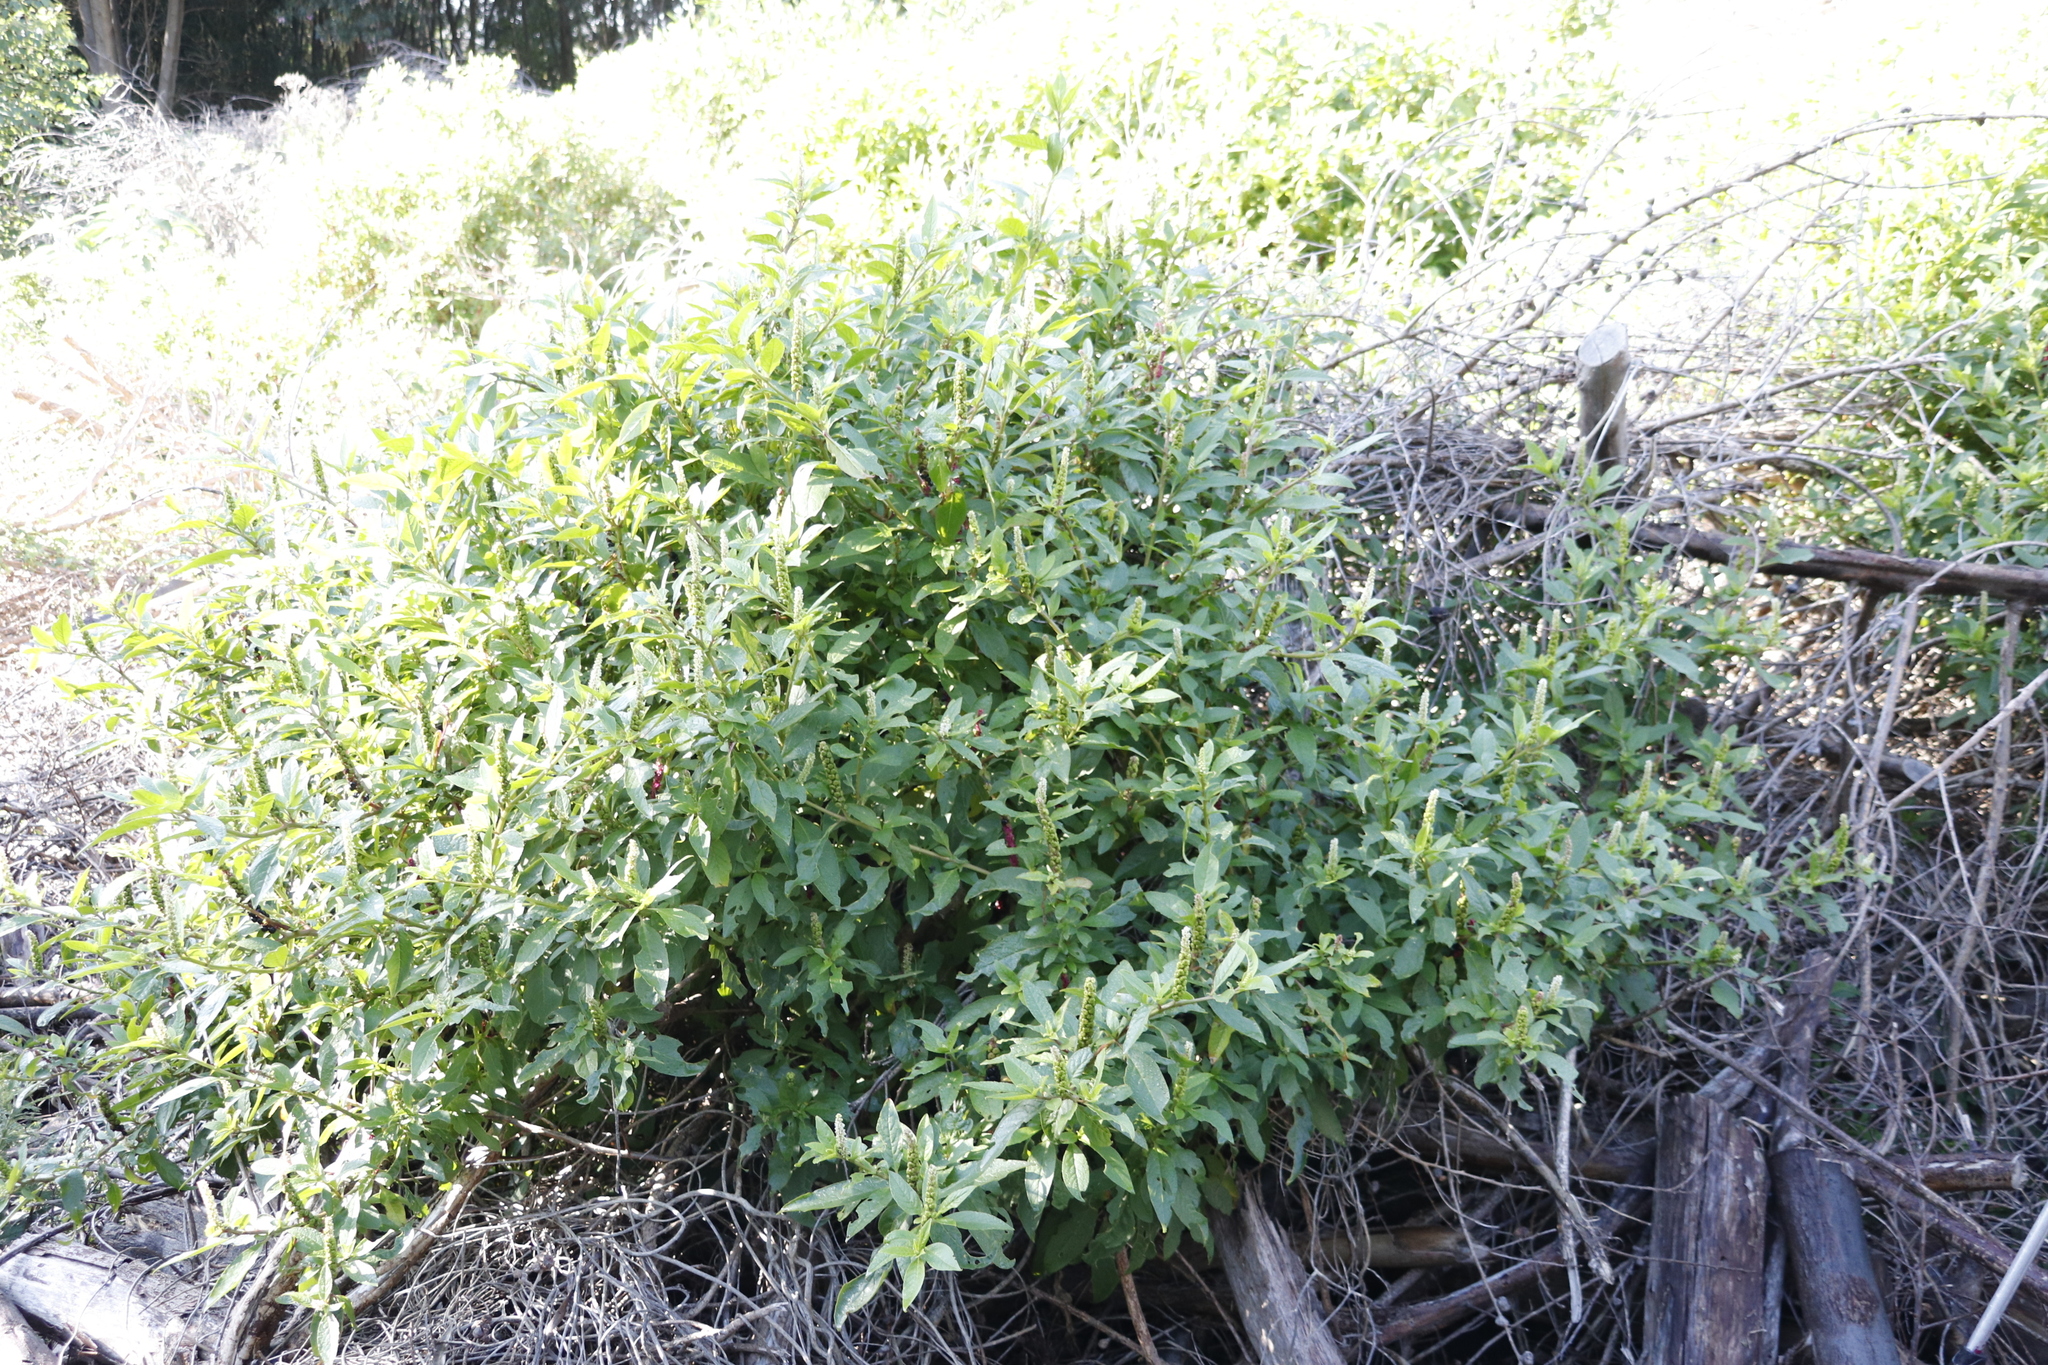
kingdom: Plantae
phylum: Tracheophyta
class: Magnoliopsida
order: Caryophyllales
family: Phytolaccaceae
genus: Phytolacca
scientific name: Phytolacca icosandra
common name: Button pokeweed
